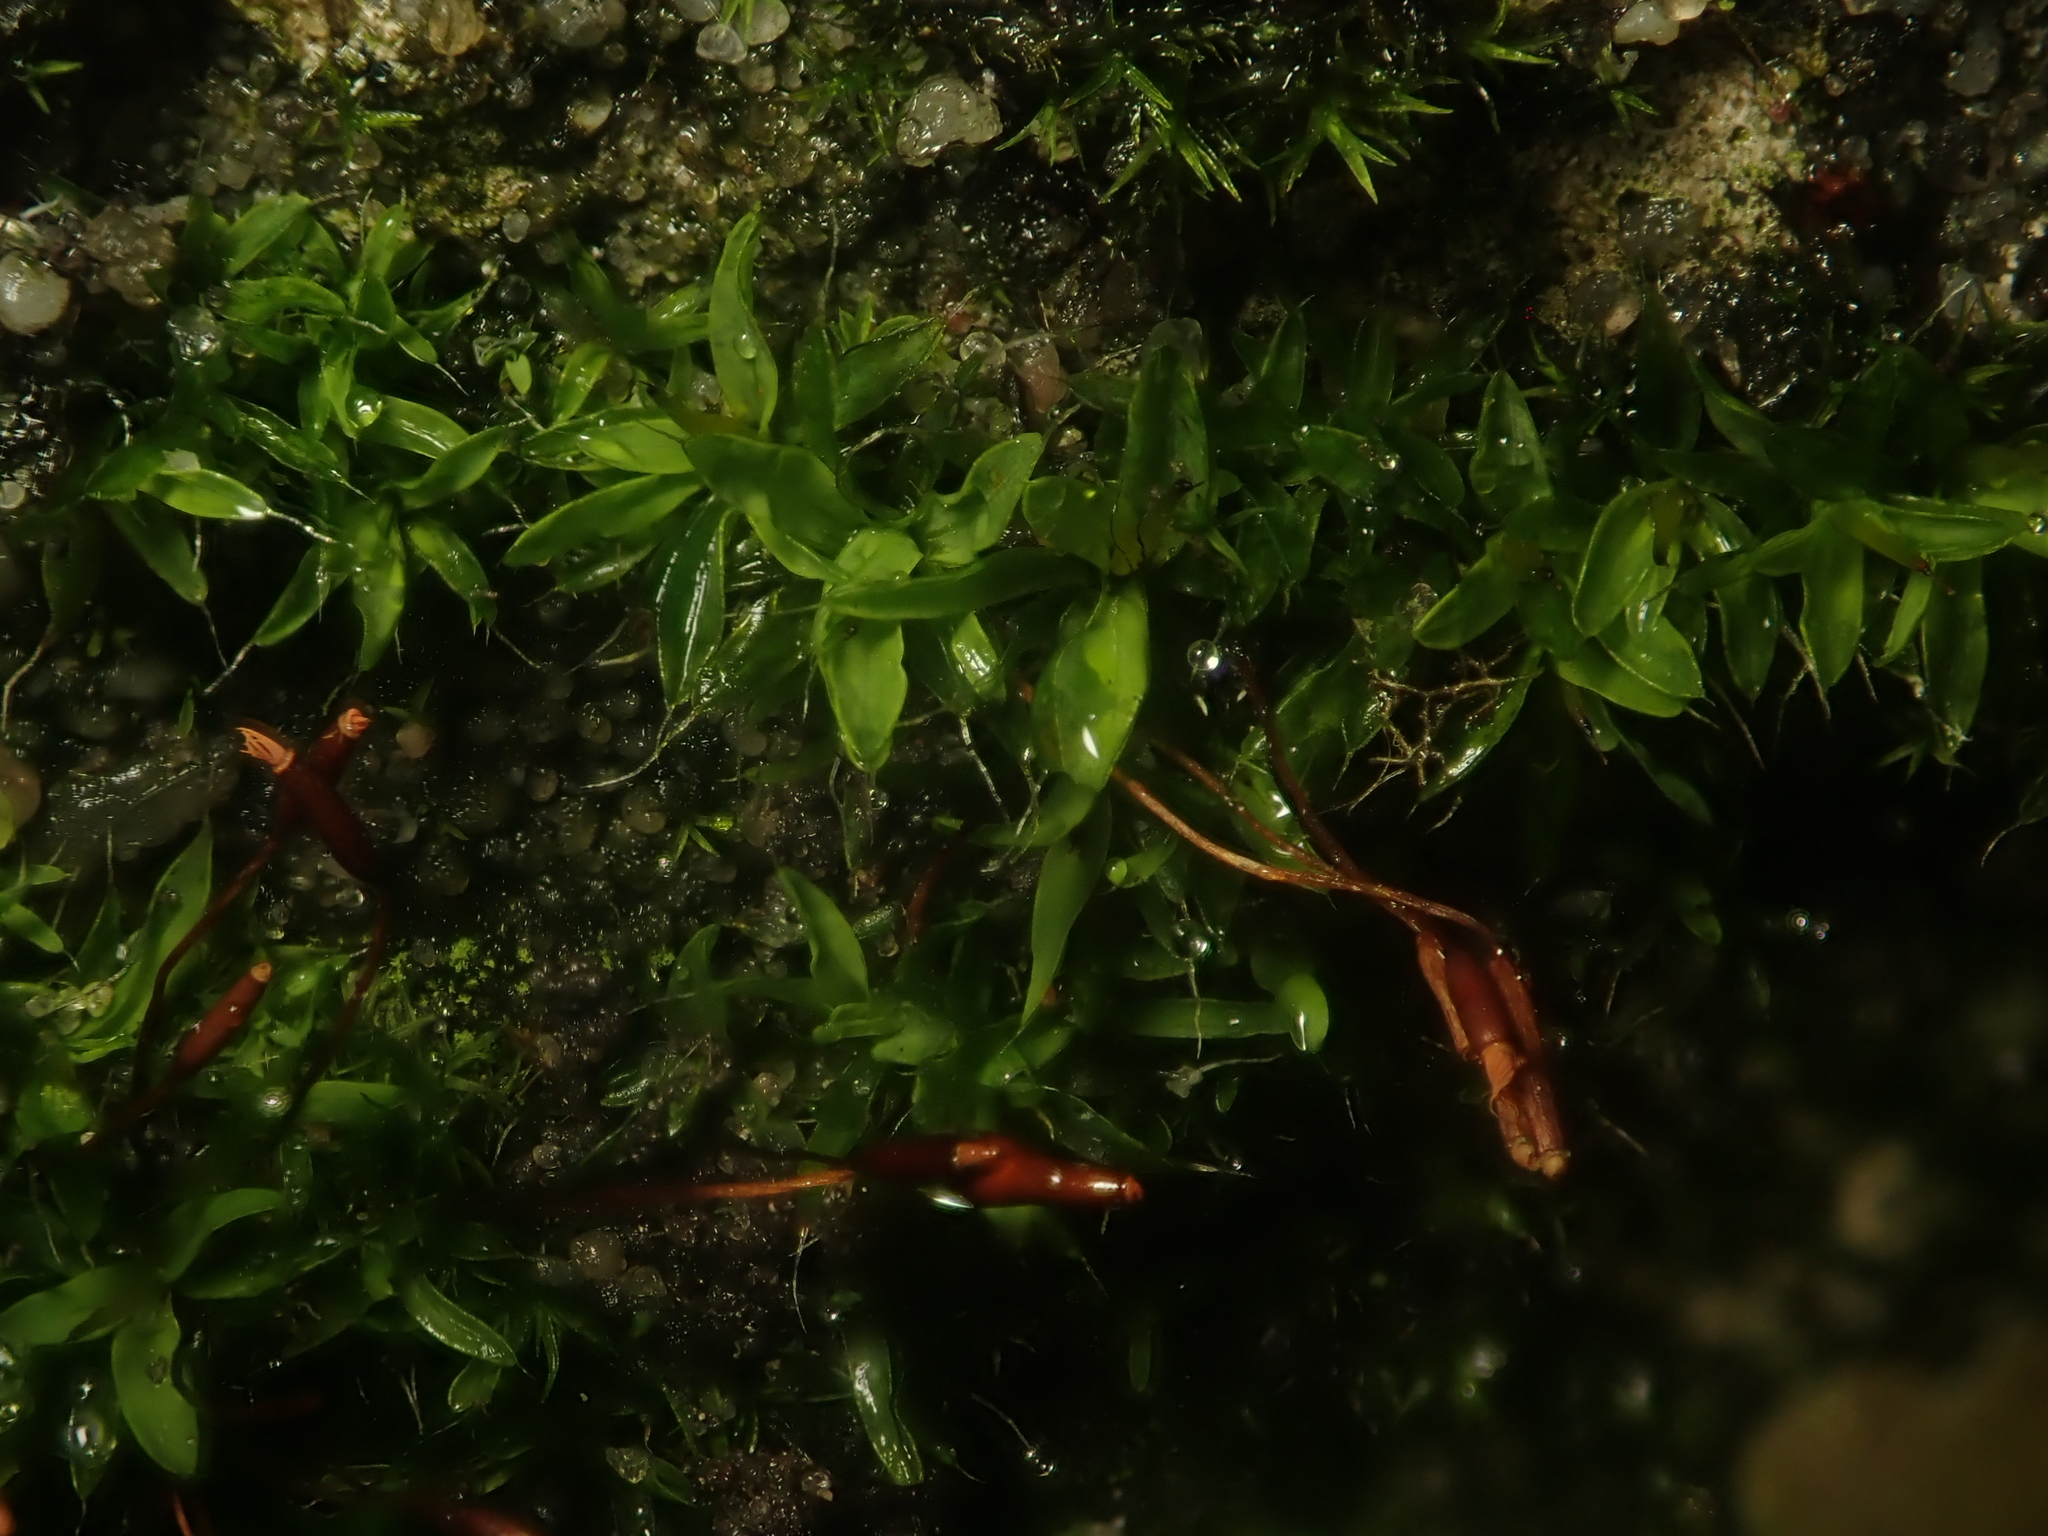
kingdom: Plantae
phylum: Bryophyta
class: Bryopsida
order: Pottiales
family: Pottiaceae
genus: Tortula
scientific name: Tortula muralis
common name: Wall screw-moss
